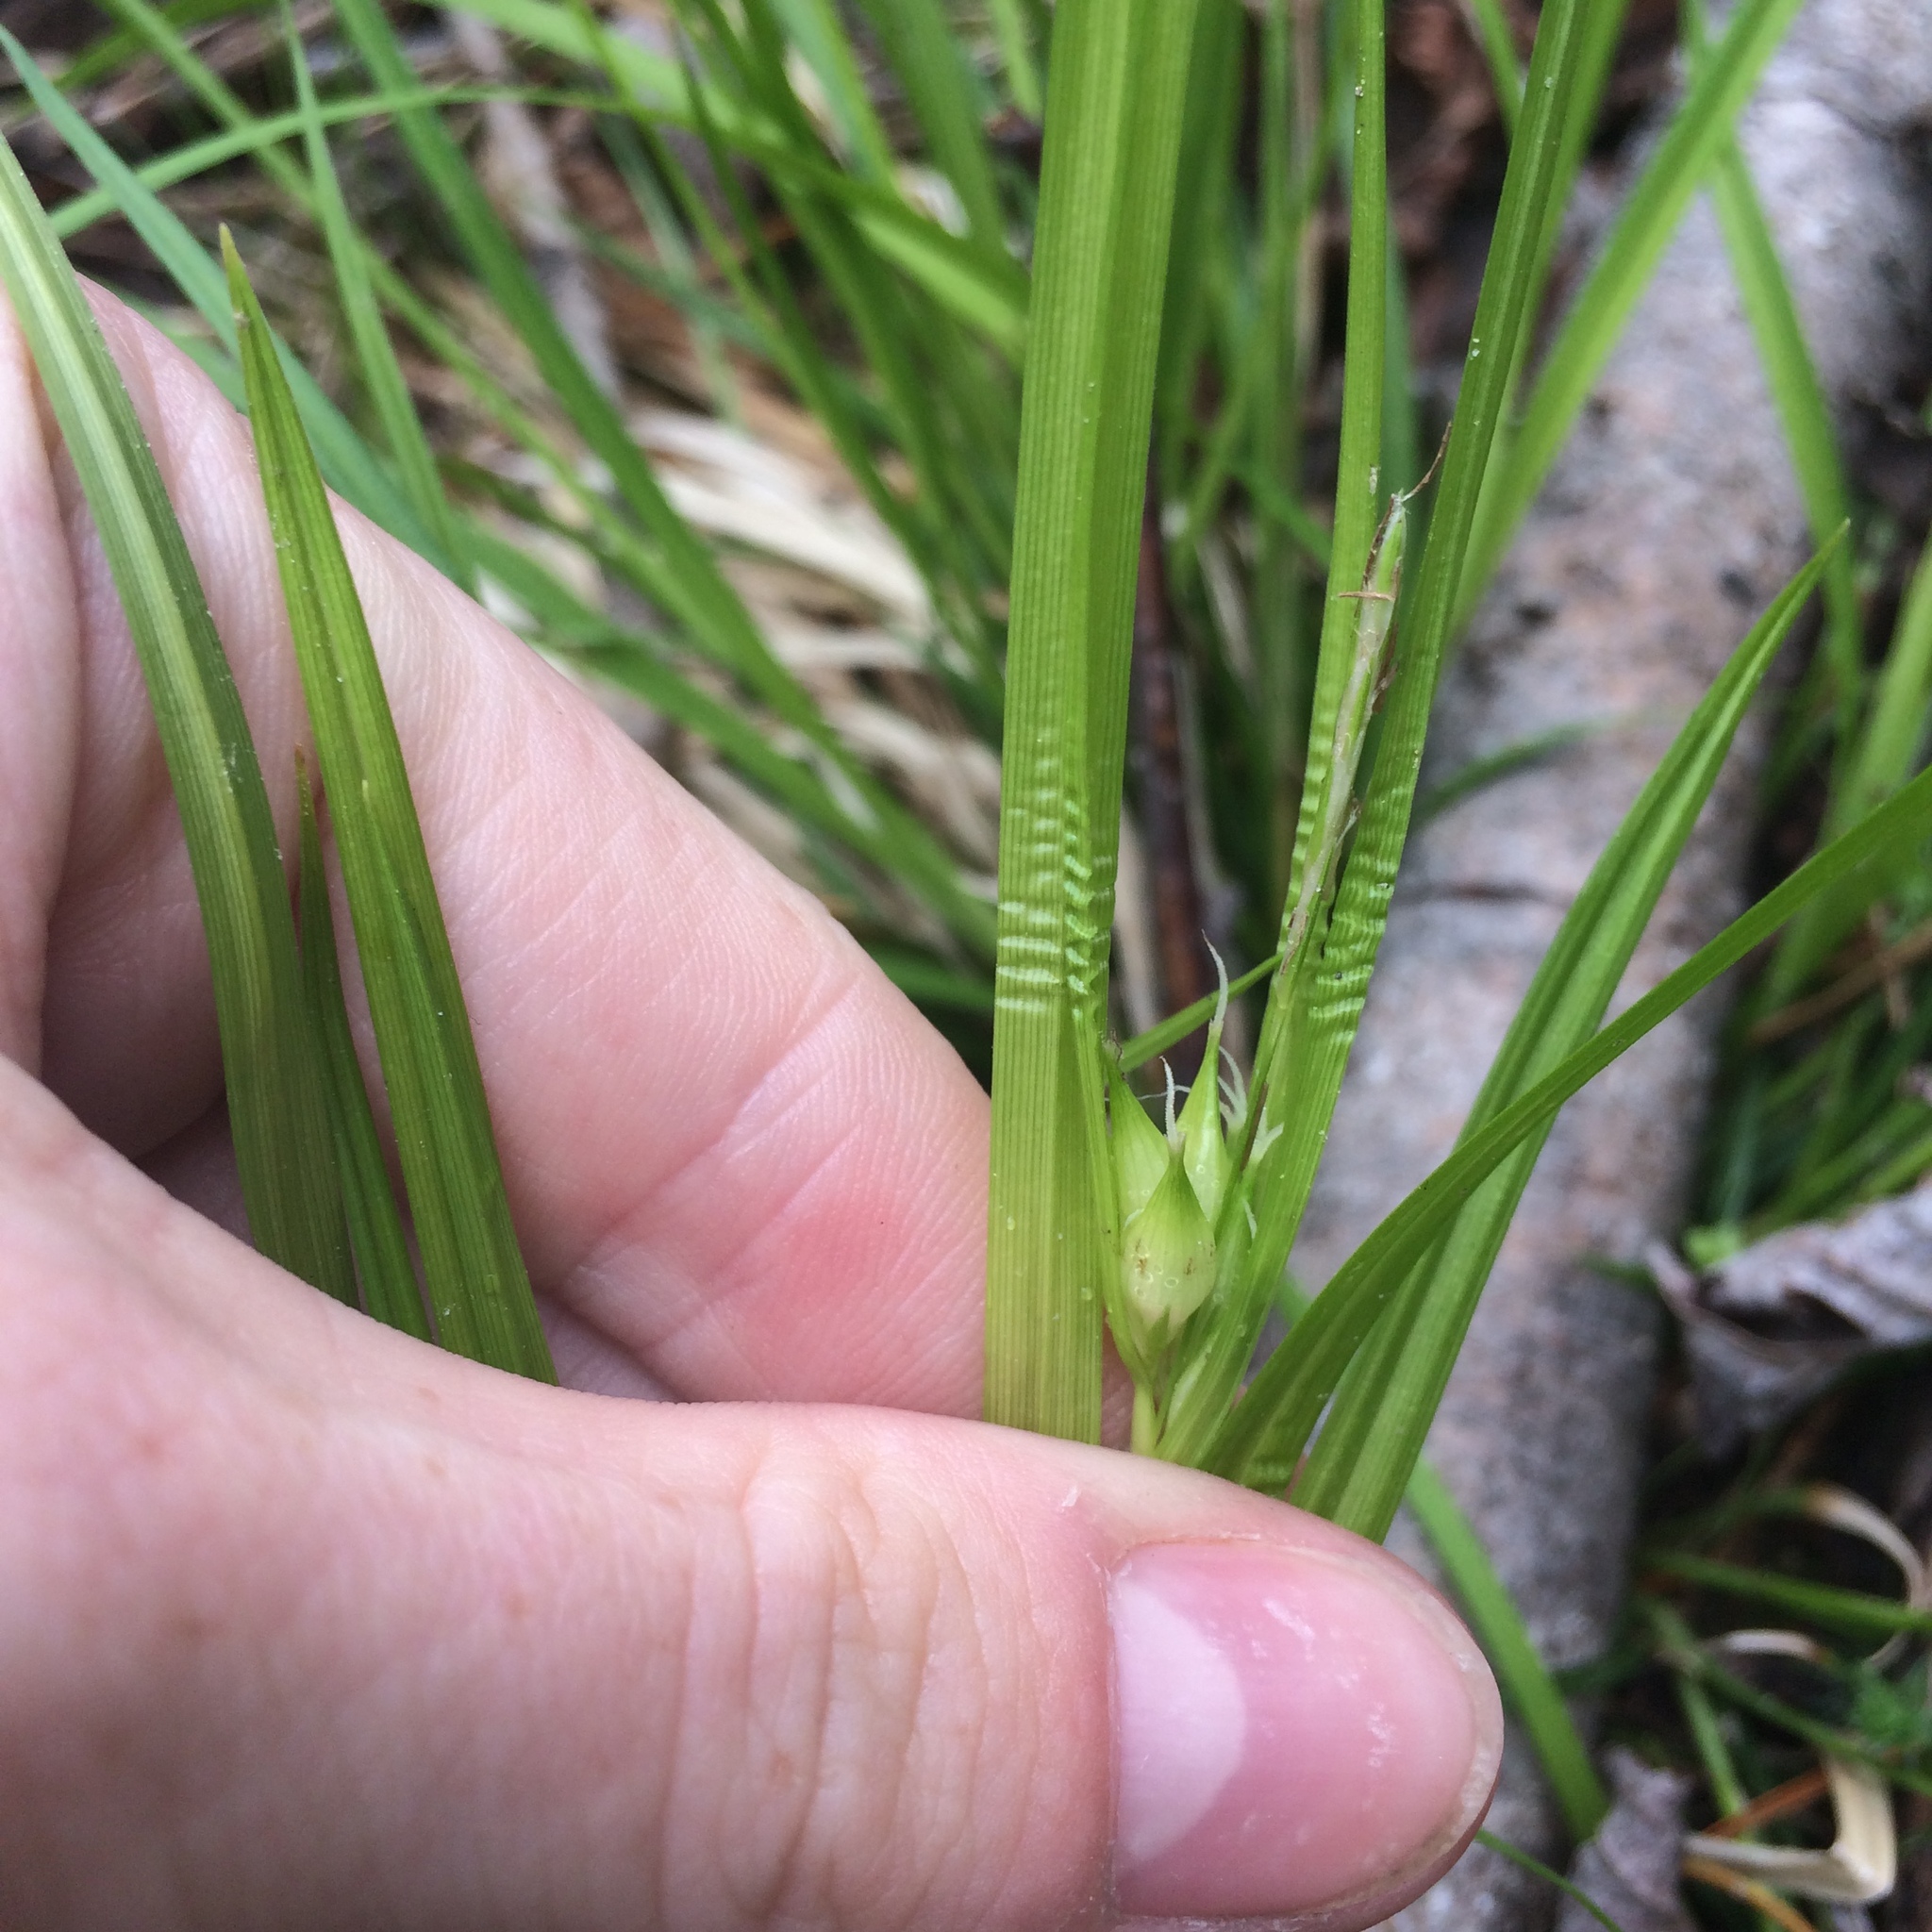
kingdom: Plantae
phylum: Tracheophyta
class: Liliopsida
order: Poales
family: Cyperaceae
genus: Carex
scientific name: Carex intumescens
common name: Greater bladder sedge
